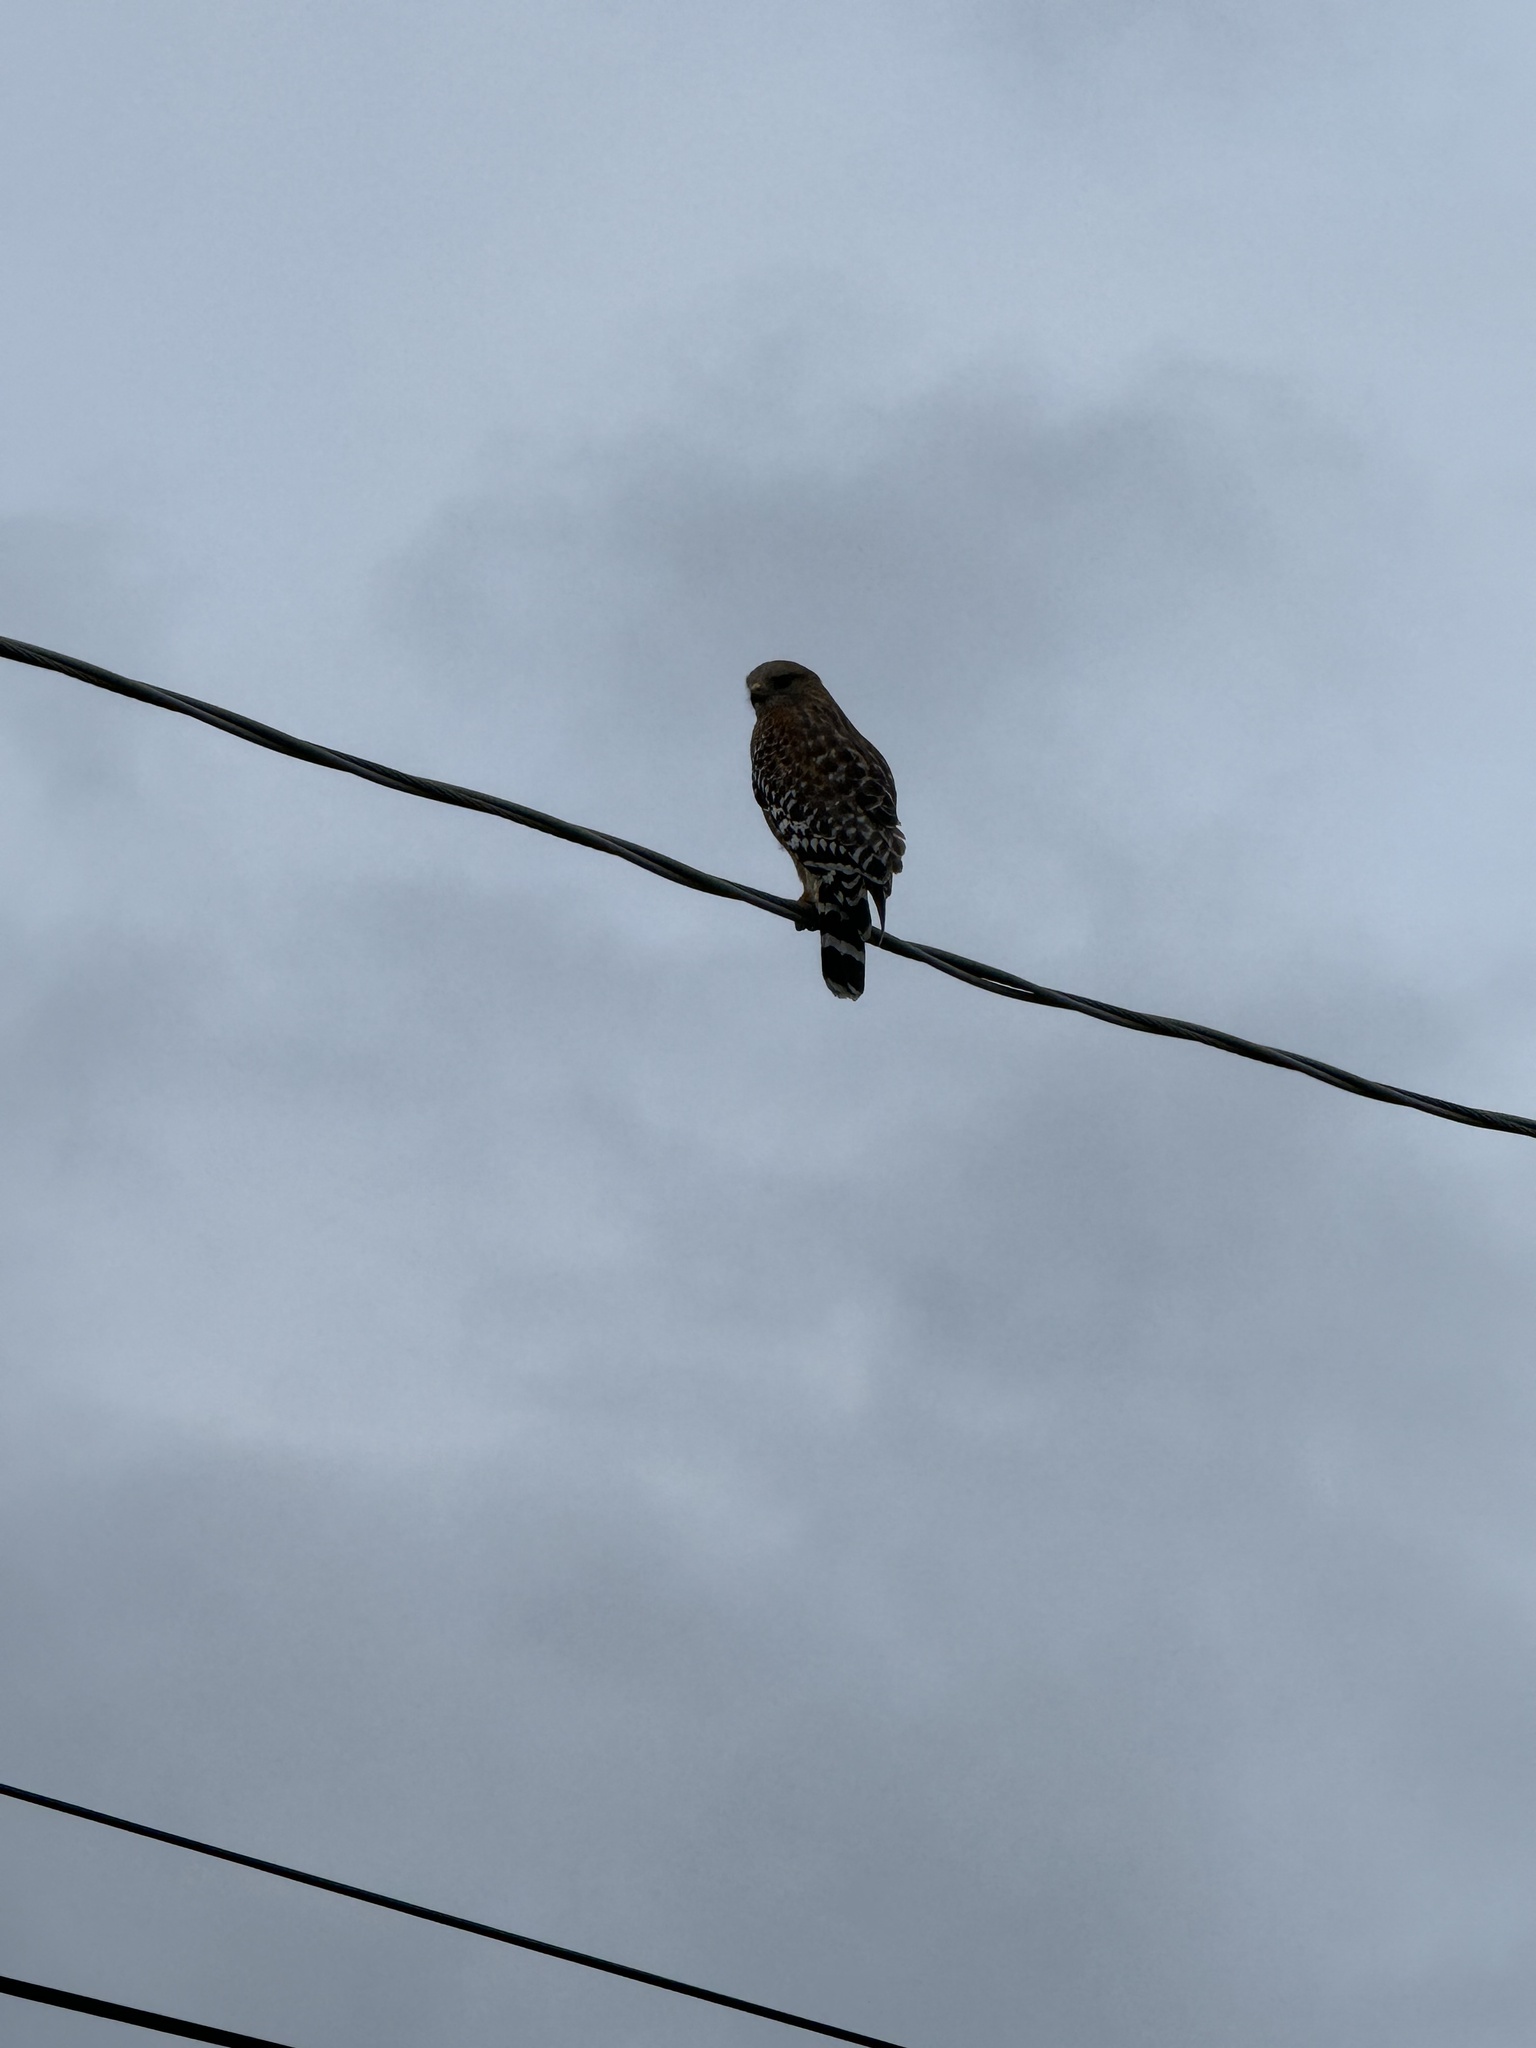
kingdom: Animalia
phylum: Chordata
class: Aves
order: Accipitriformes
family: Accipitridae
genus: Buteo
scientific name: Buteo lineatus
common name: Red-shouldered hawk
